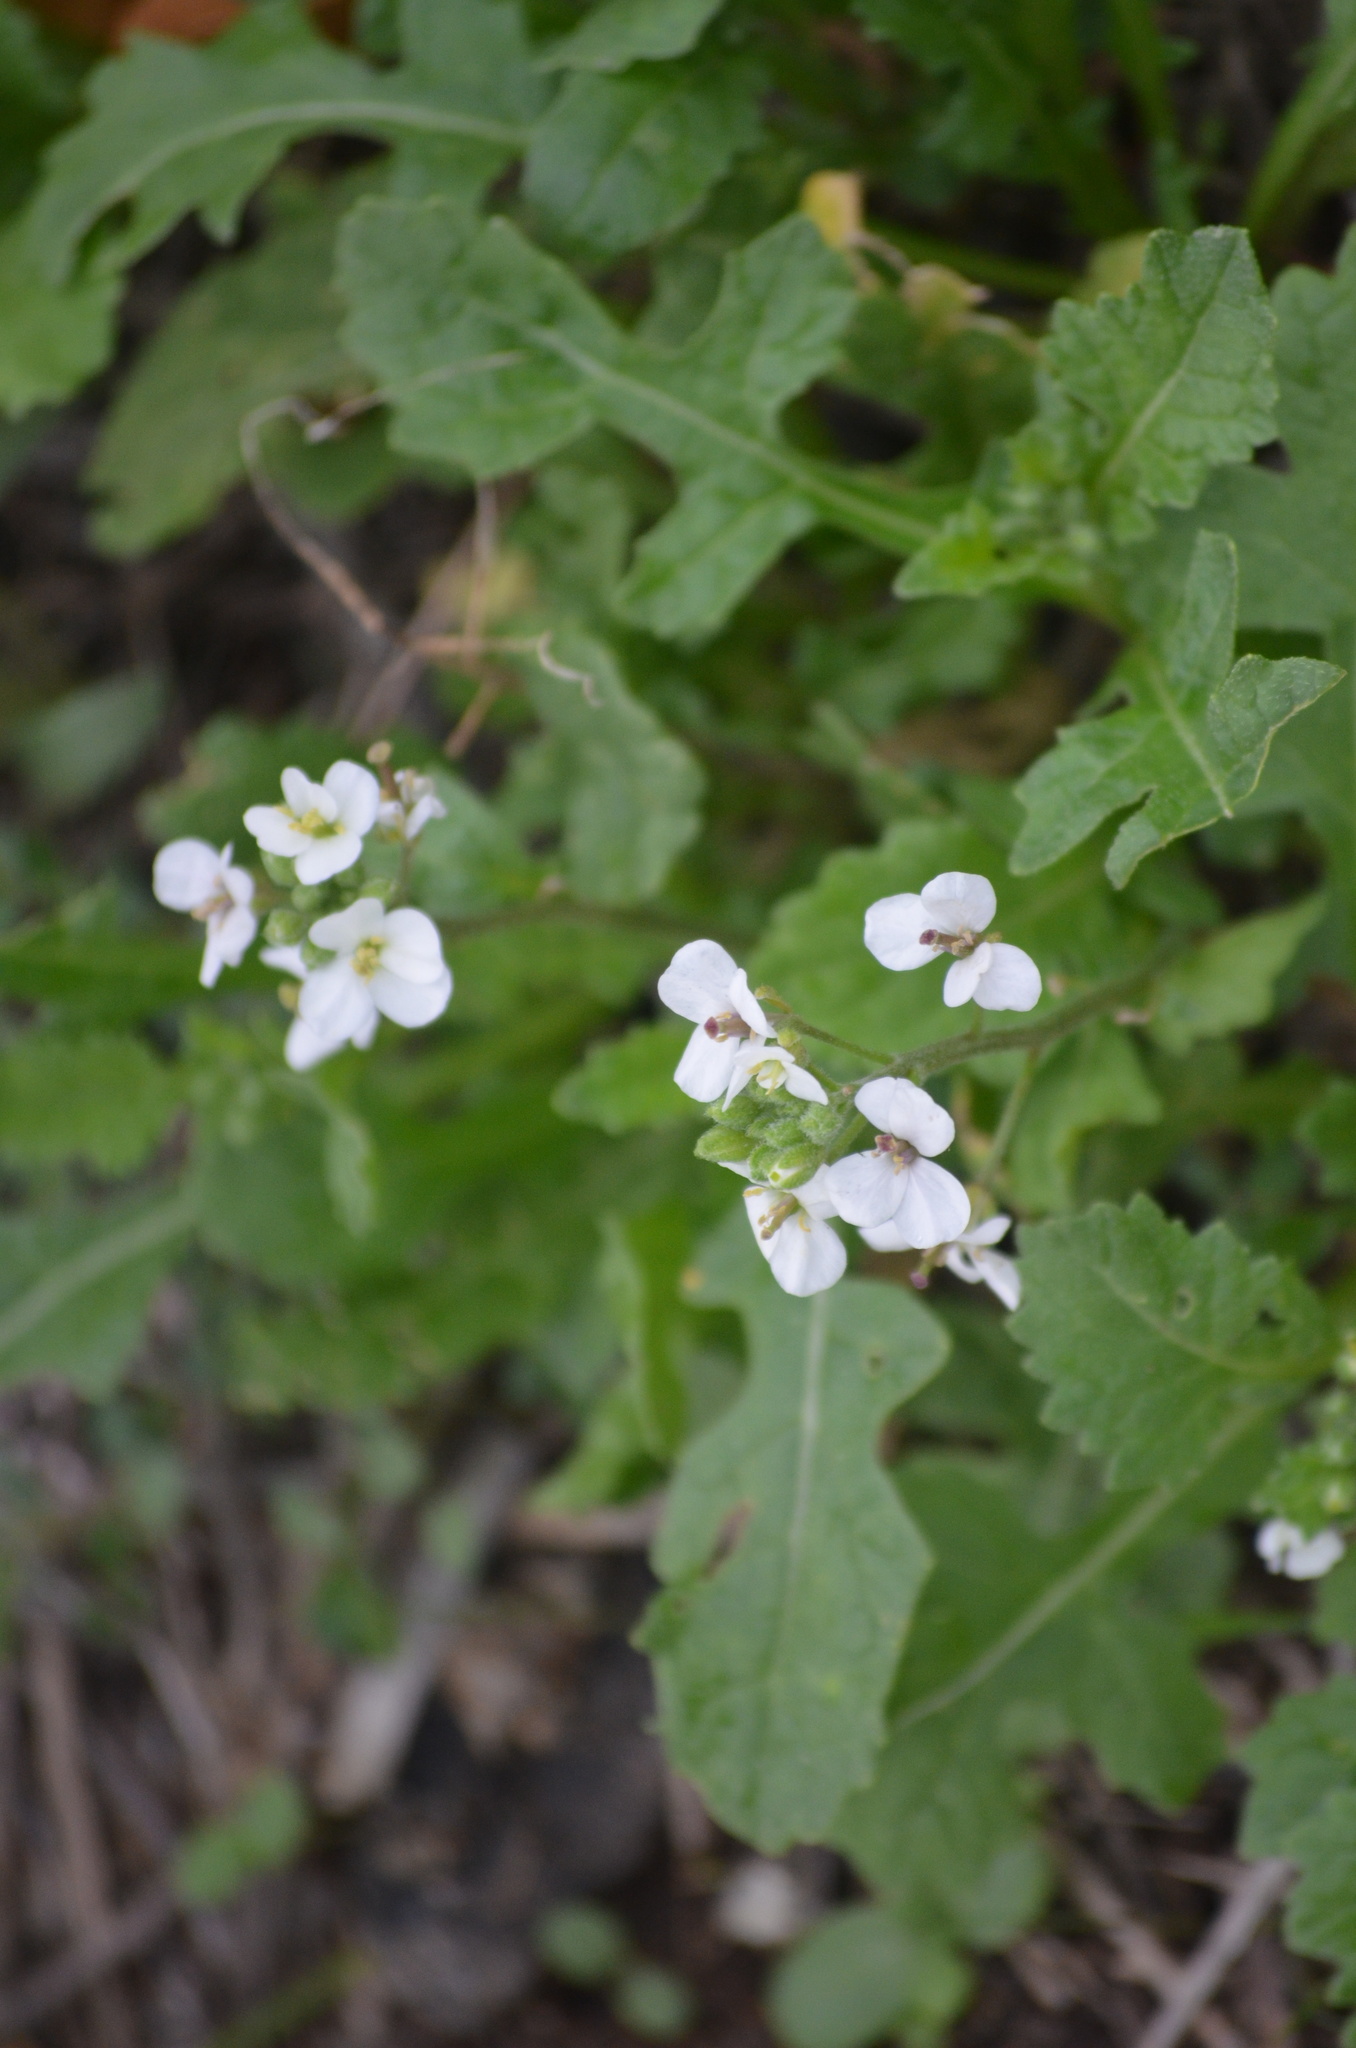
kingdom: Plantae
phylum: Tracheophyta
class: Magnoliopsida
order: Brassicales
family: Brassicaceae
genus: Diplotaxis
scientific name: Diplotaxis erucoides
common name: White rocket
